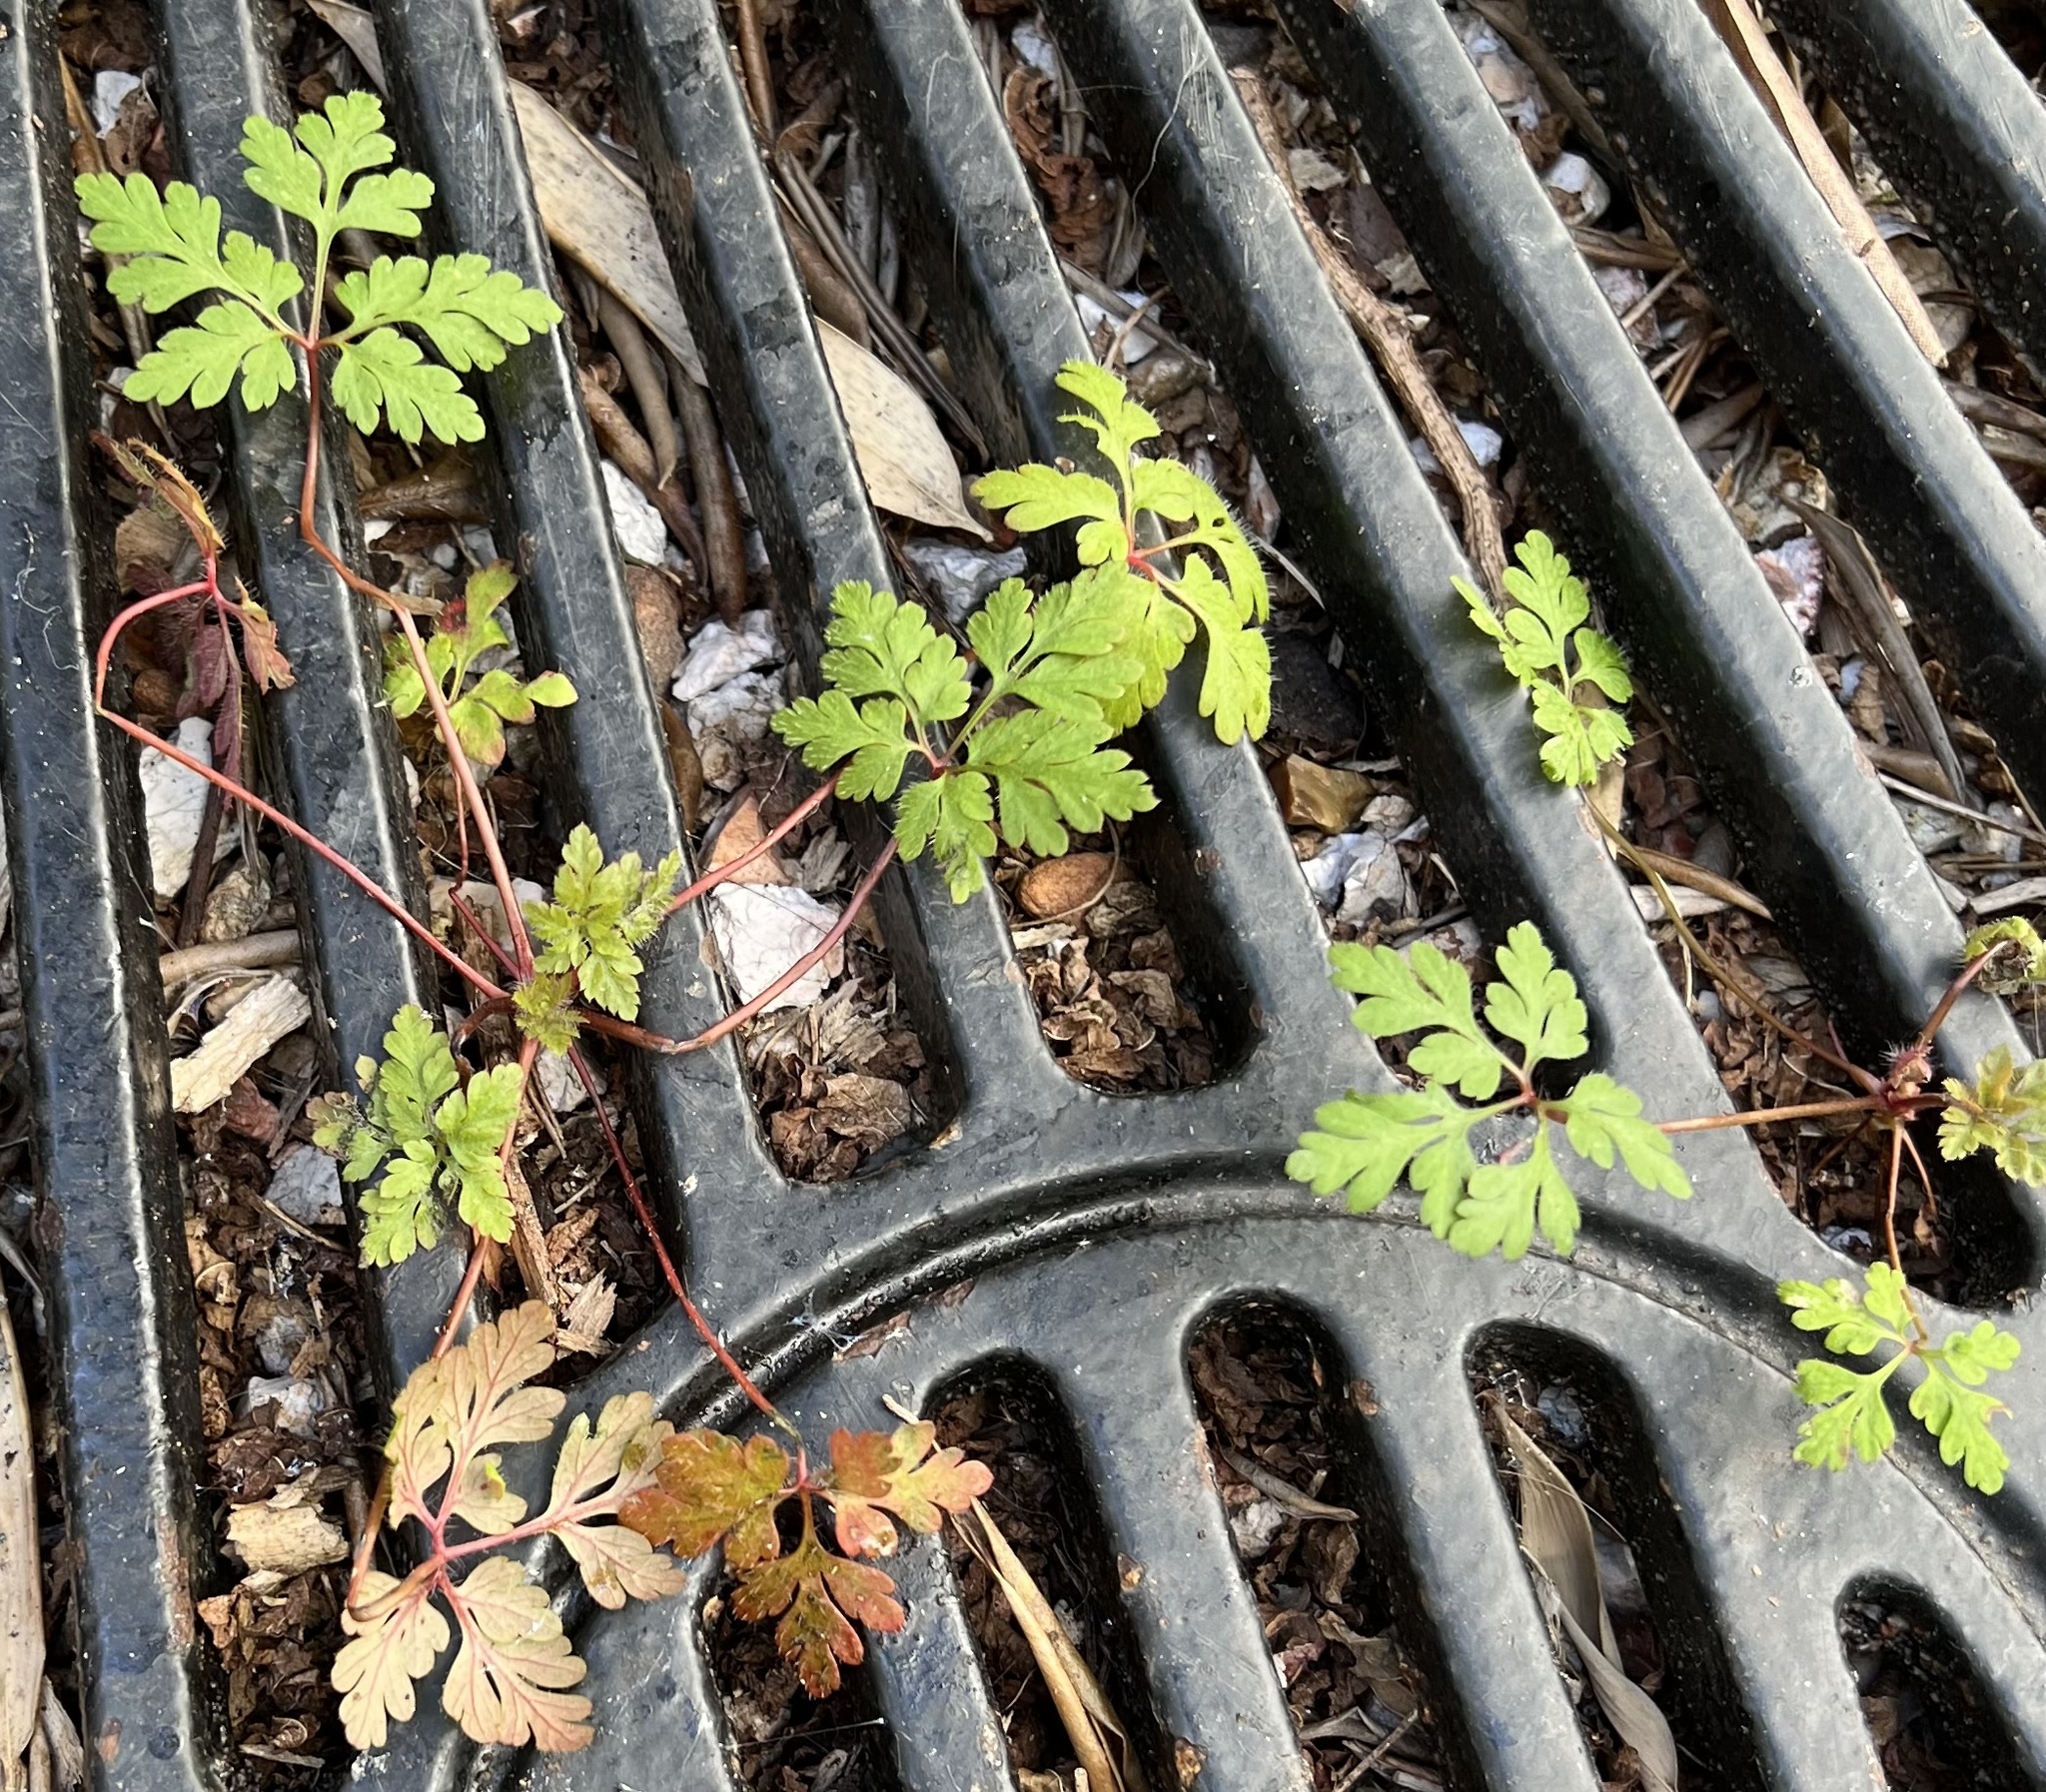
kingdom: Plantae
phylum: Tracheophyta
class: Magnoliopsida
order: Geraniales
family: Geraniaceae
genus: Geranium
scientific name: Geranium robertianum
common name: Herb-robert
